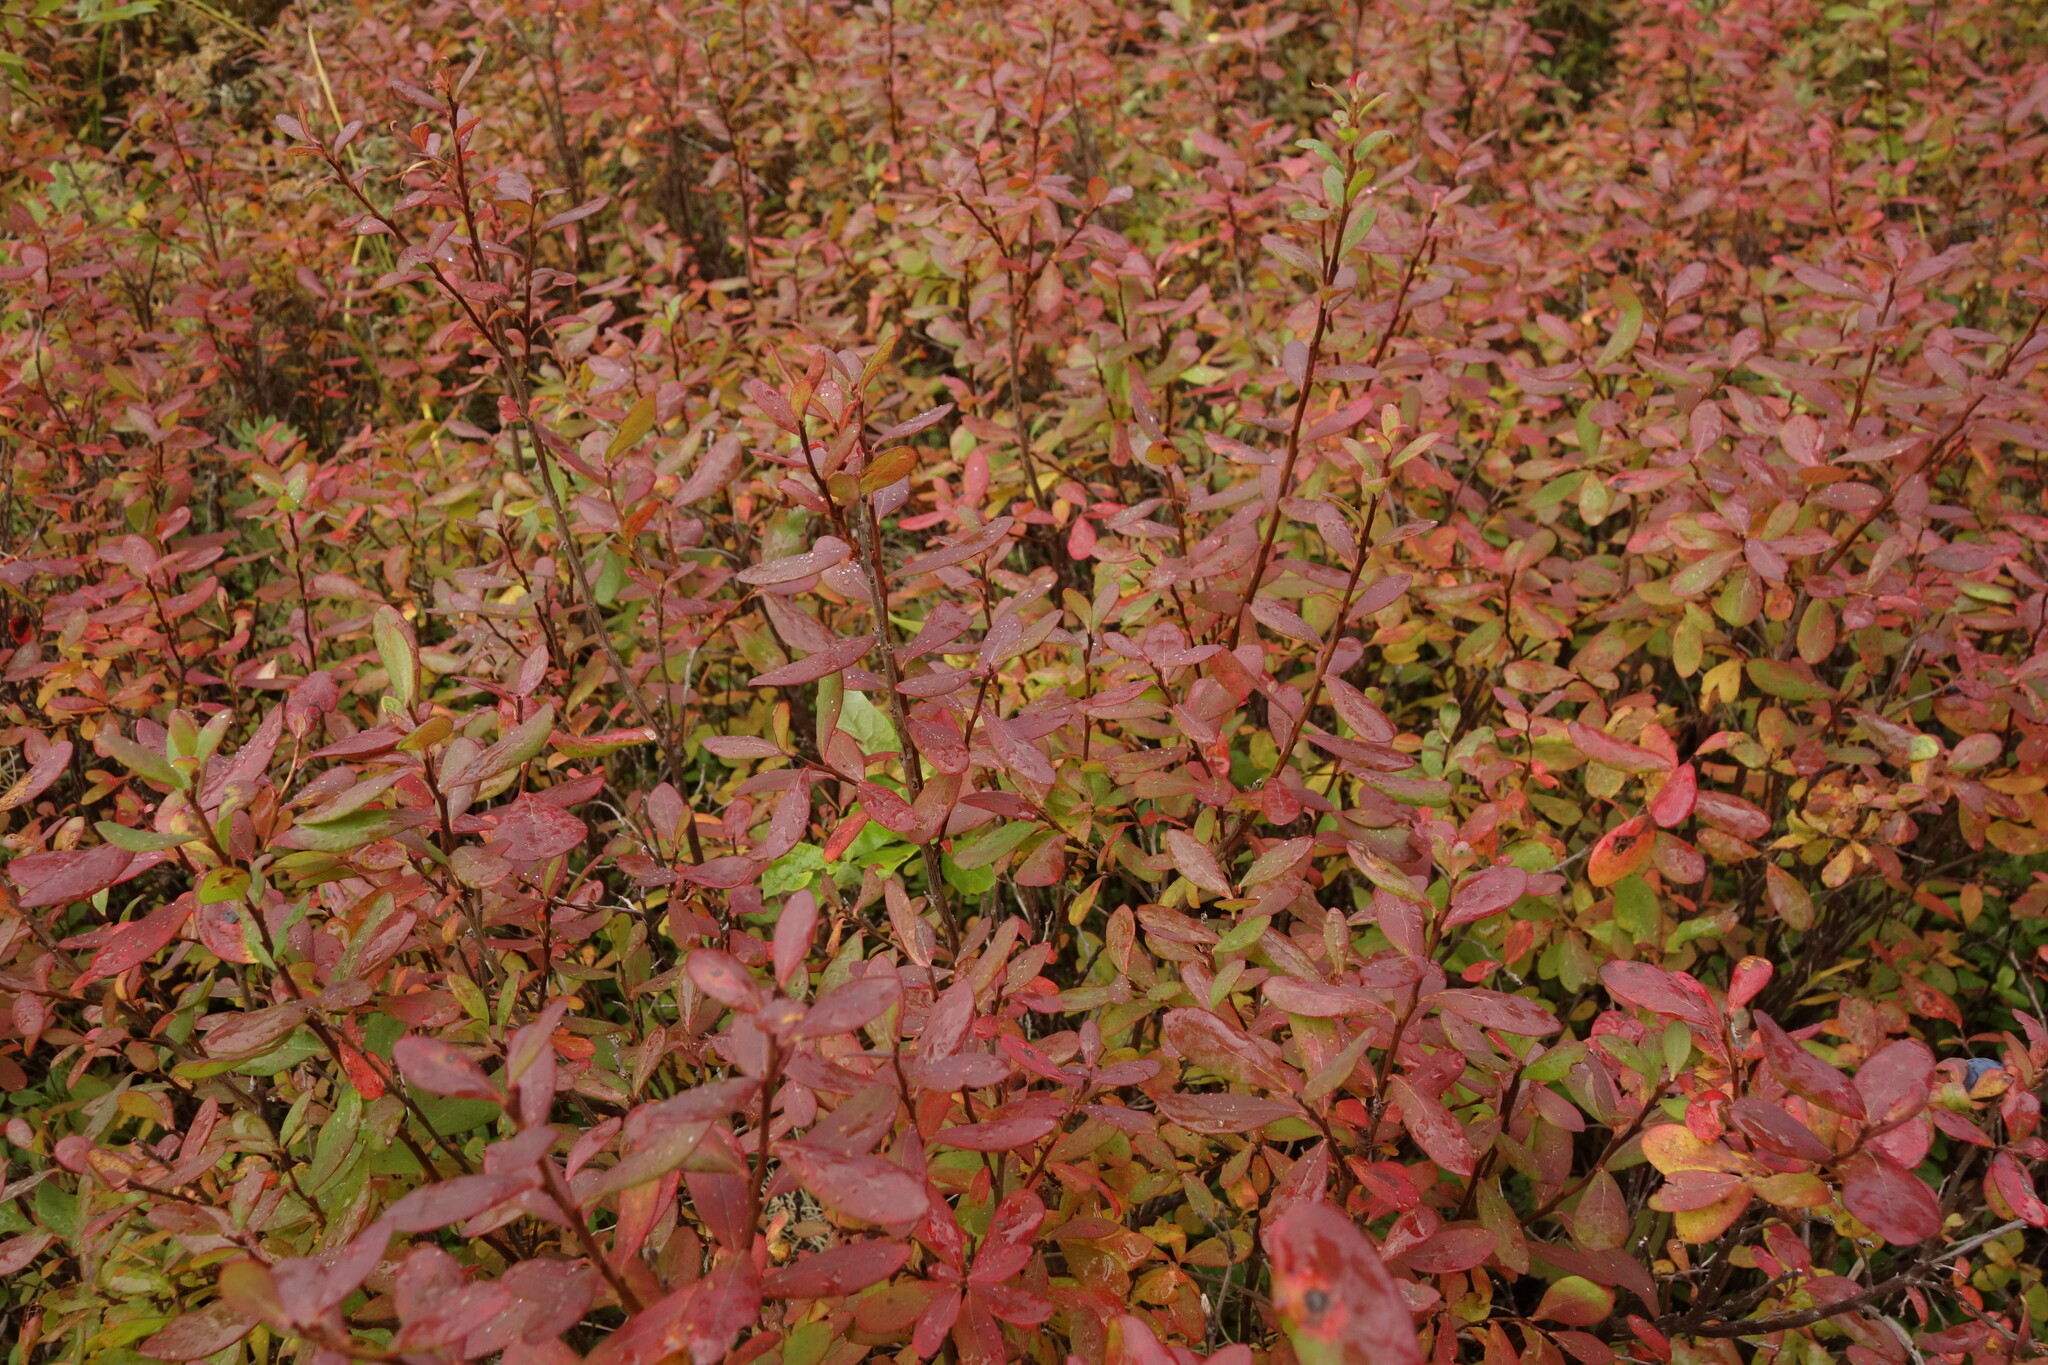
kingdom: Plantae
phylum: Tracheophyta
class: Magnoliopsida
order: Ericales
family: Ericaceae
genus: Vaccinium
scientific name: Vaccinium uliginosum
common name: Bog bilberry
